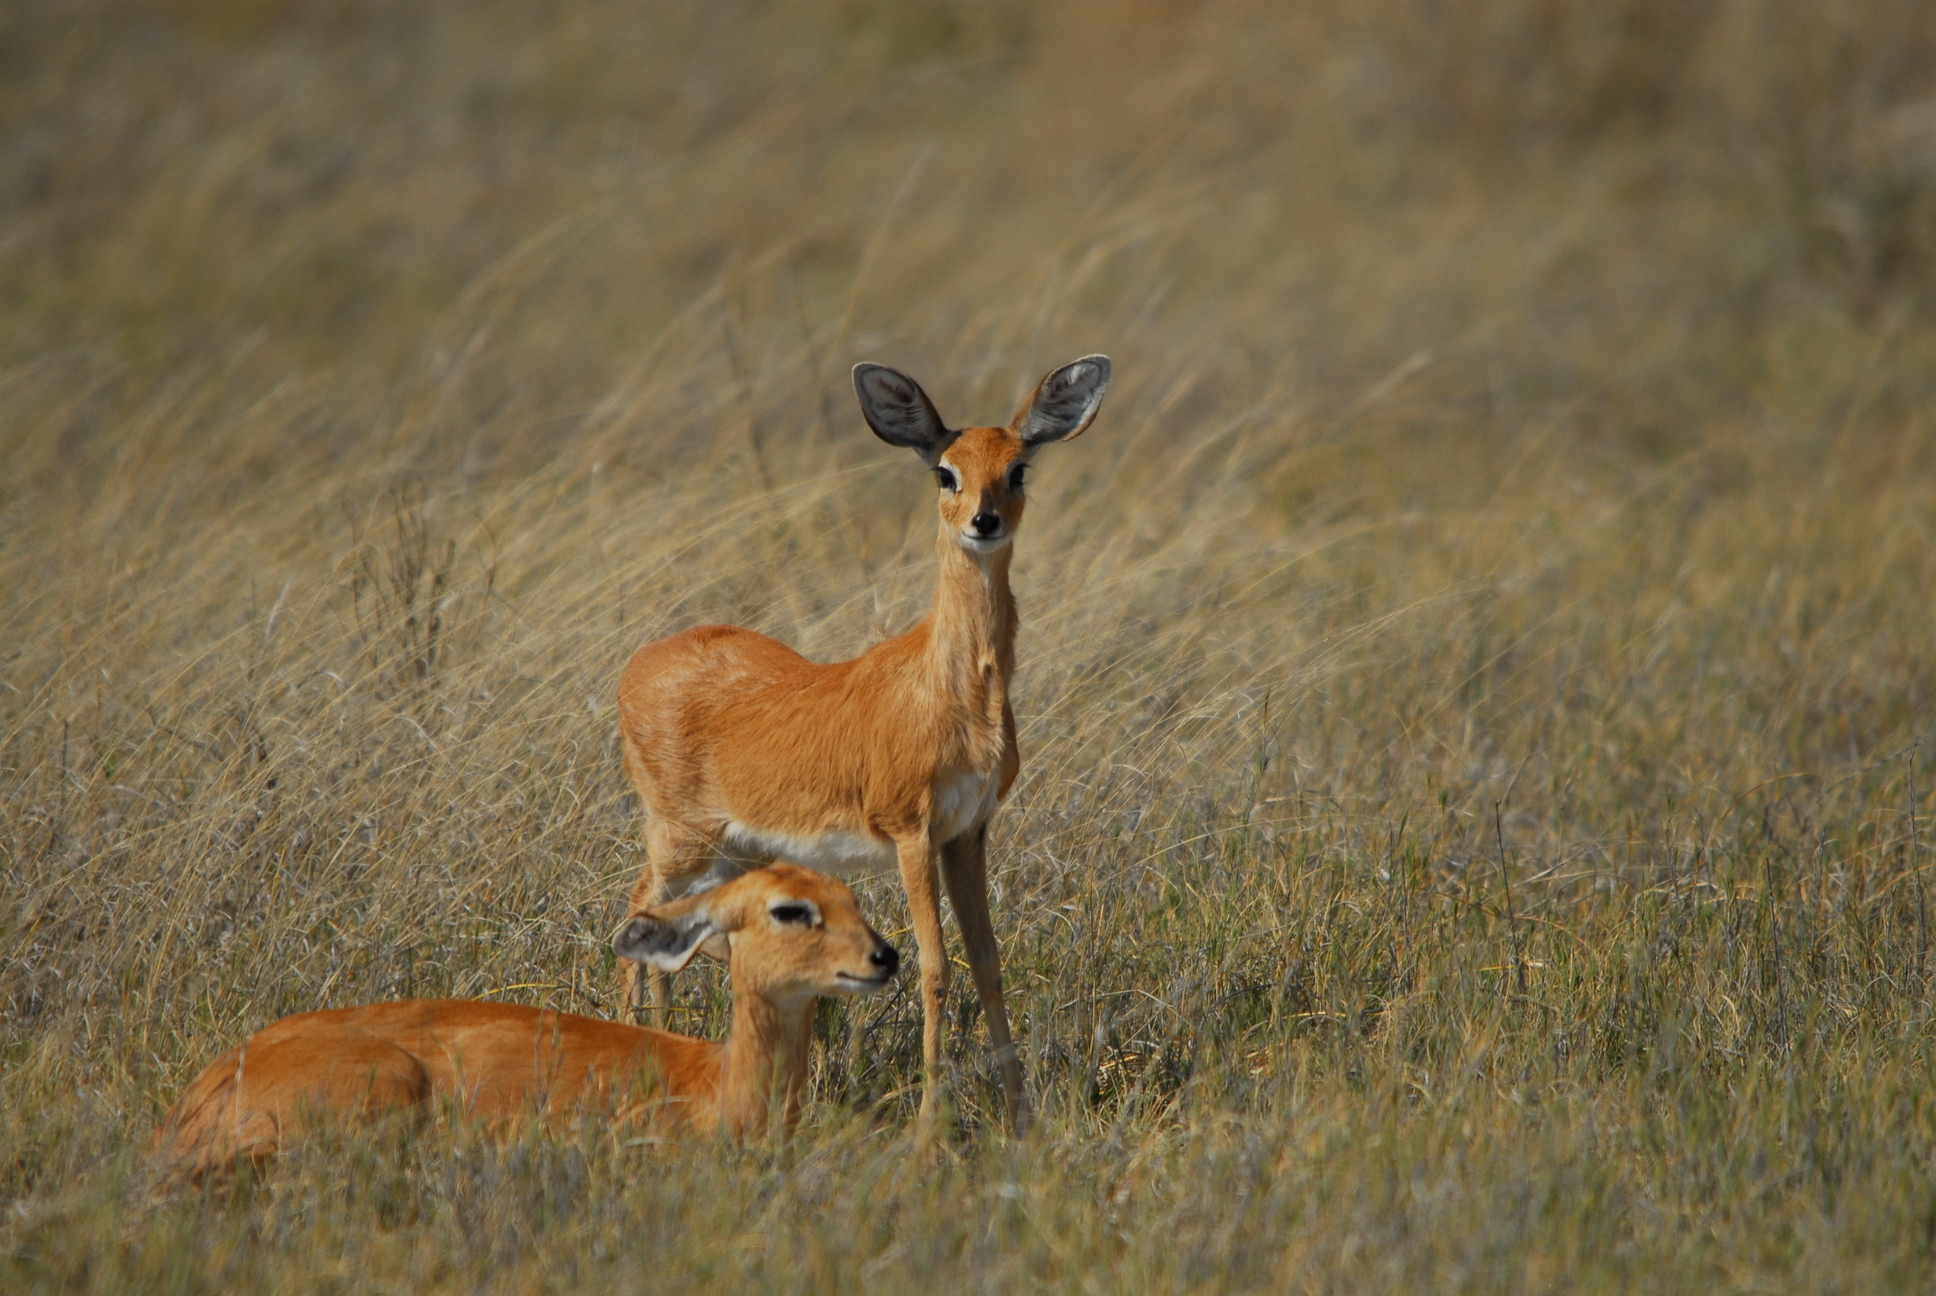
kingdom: Animalia
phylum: Chordata
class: Mammalia
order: Artiodactyla
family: Bovidae
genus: Raphicerus
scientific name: Raphicerus campestris
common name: Steenbok
